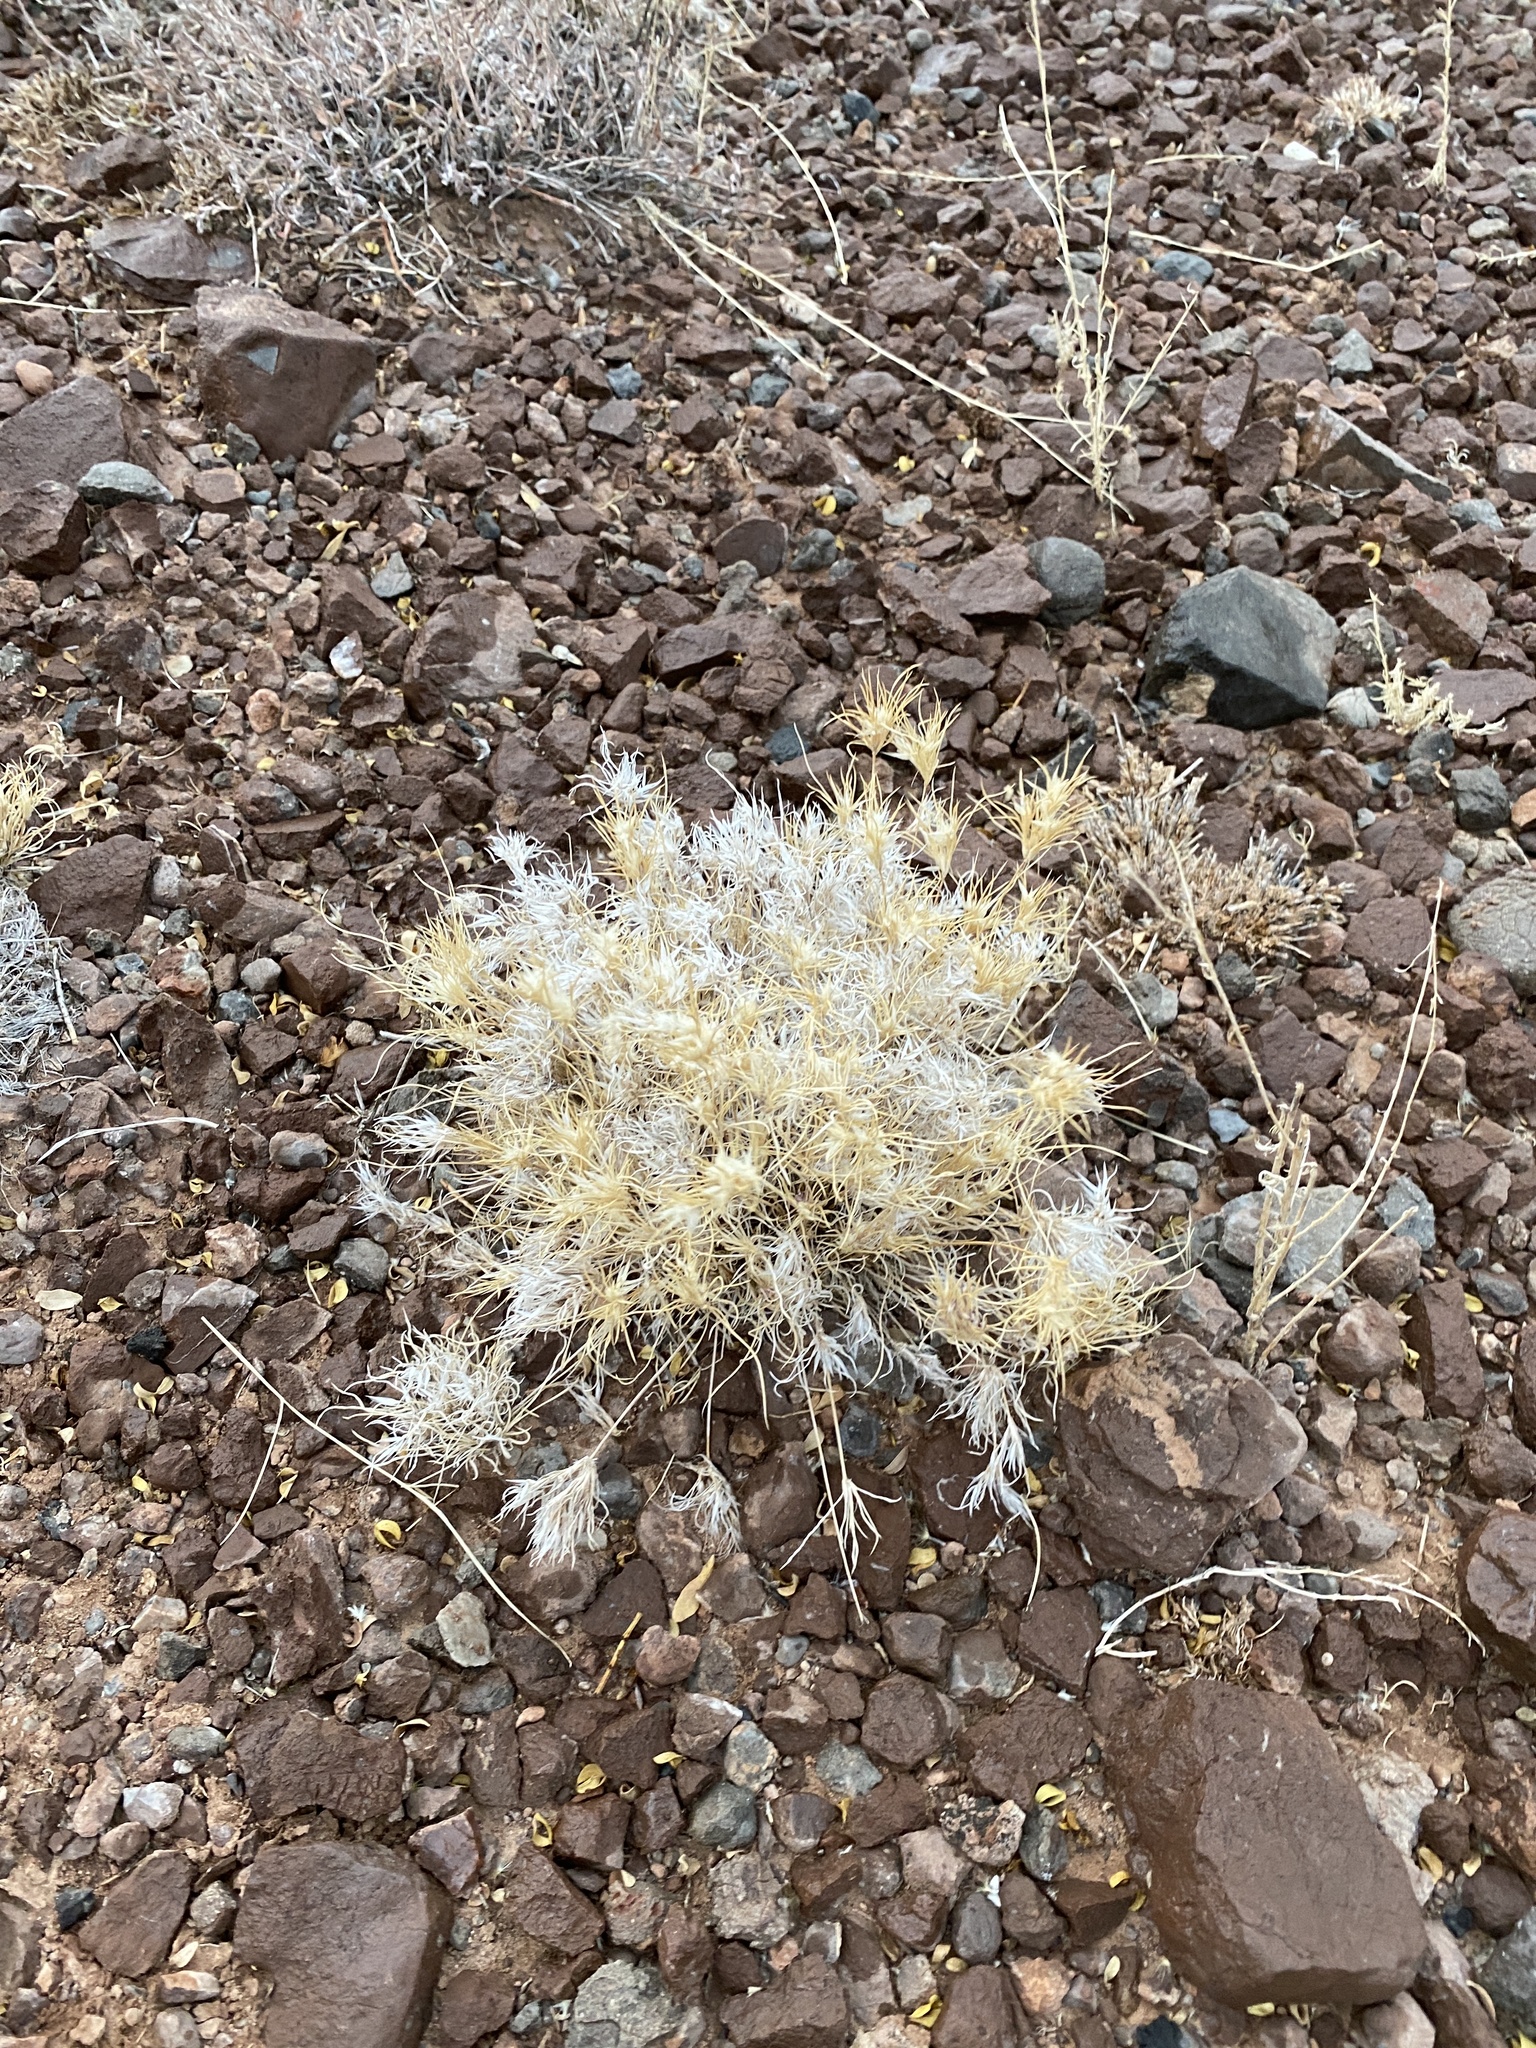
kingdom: Plantae
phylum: Tracheophyta
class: Liliopsida
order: Poales
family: Poaceae
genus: Dasyochloa
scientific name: Dasyochloa pulchella
